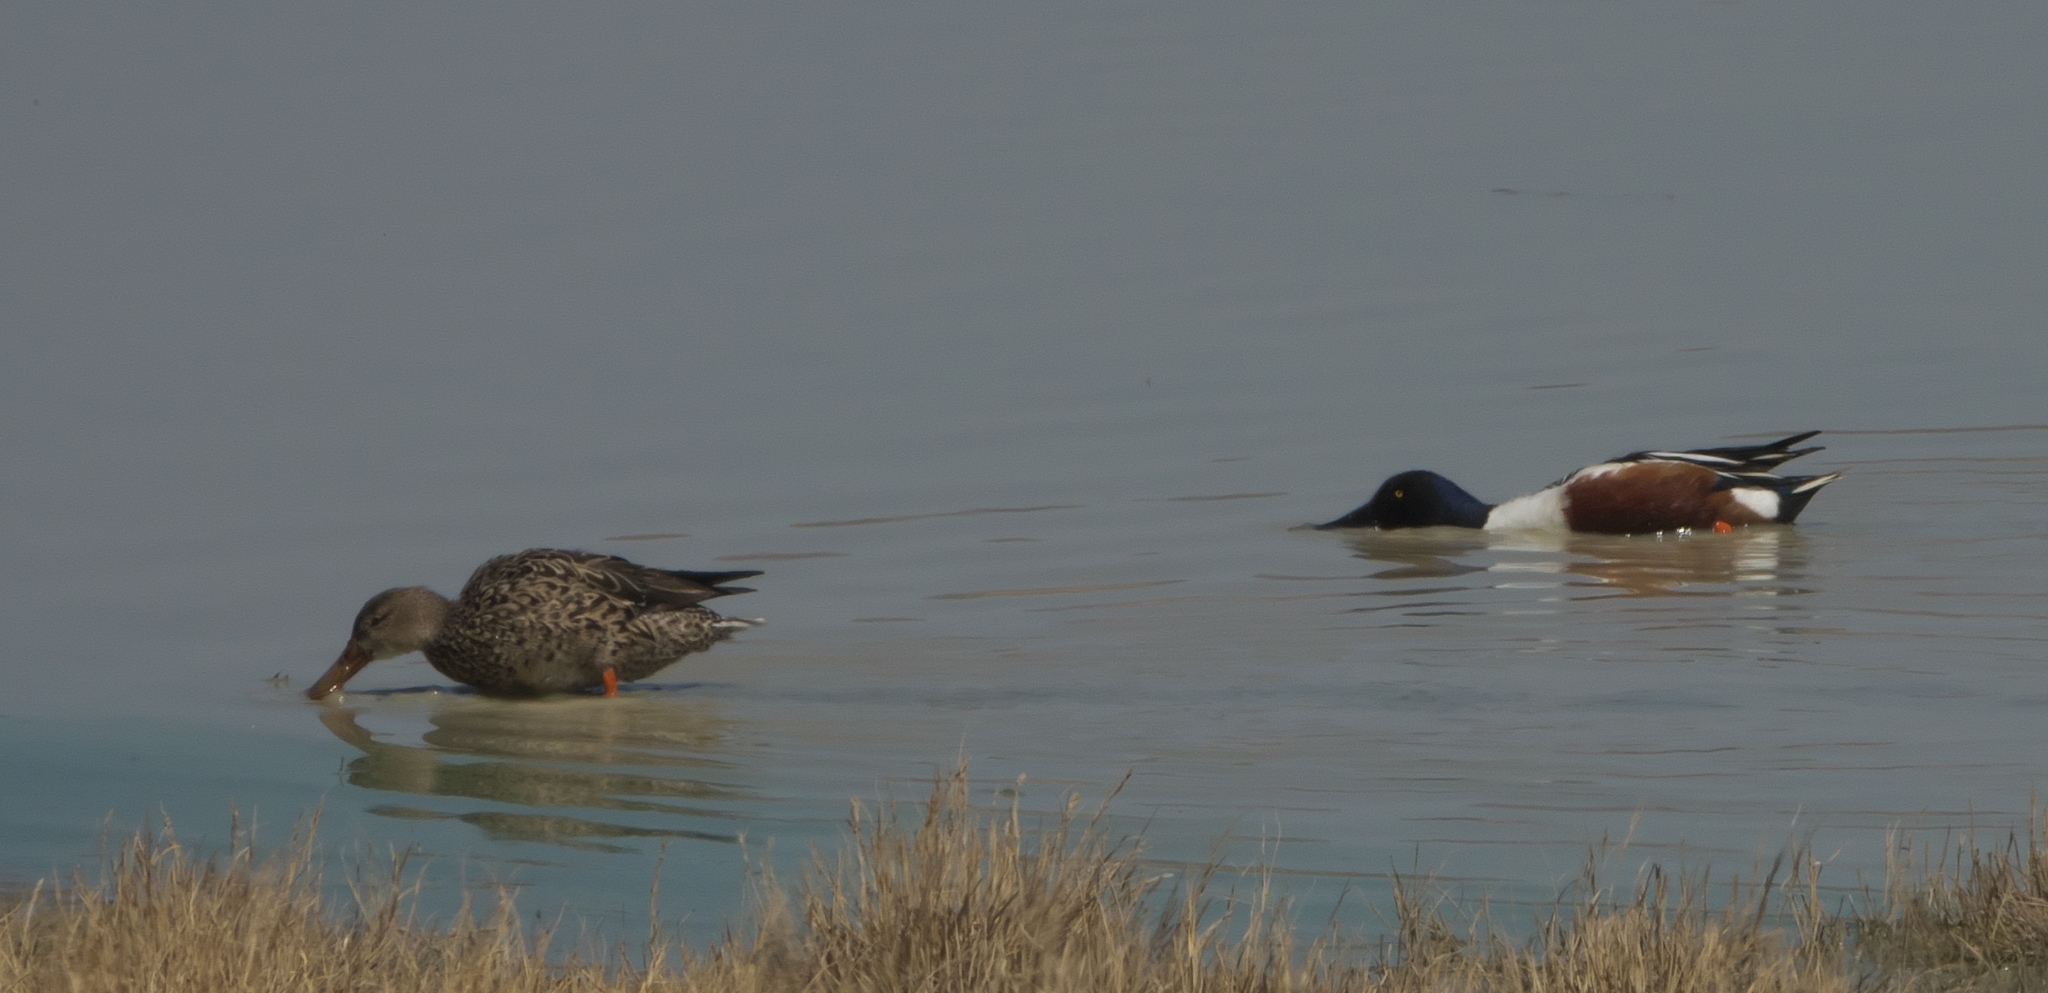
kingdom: Animalia
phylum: Chordata
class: Aves
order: Anseriformes
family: Anatidae
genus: Spatula
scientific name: Spatula clypeata
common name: Northern shoveler
